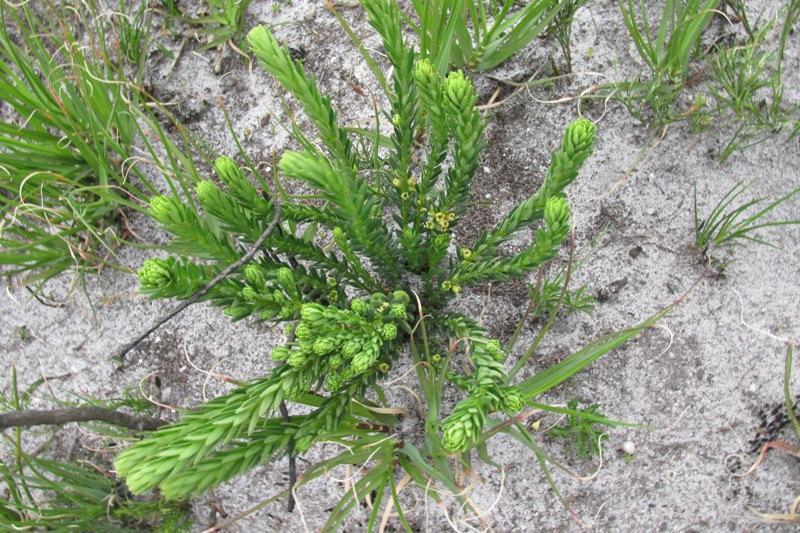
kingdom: Plantae
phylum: Tracheophyta
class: Magnoliopsida
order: Malpighiales
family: Peraceae
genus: Clutia
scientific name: Clutia polygonoides
